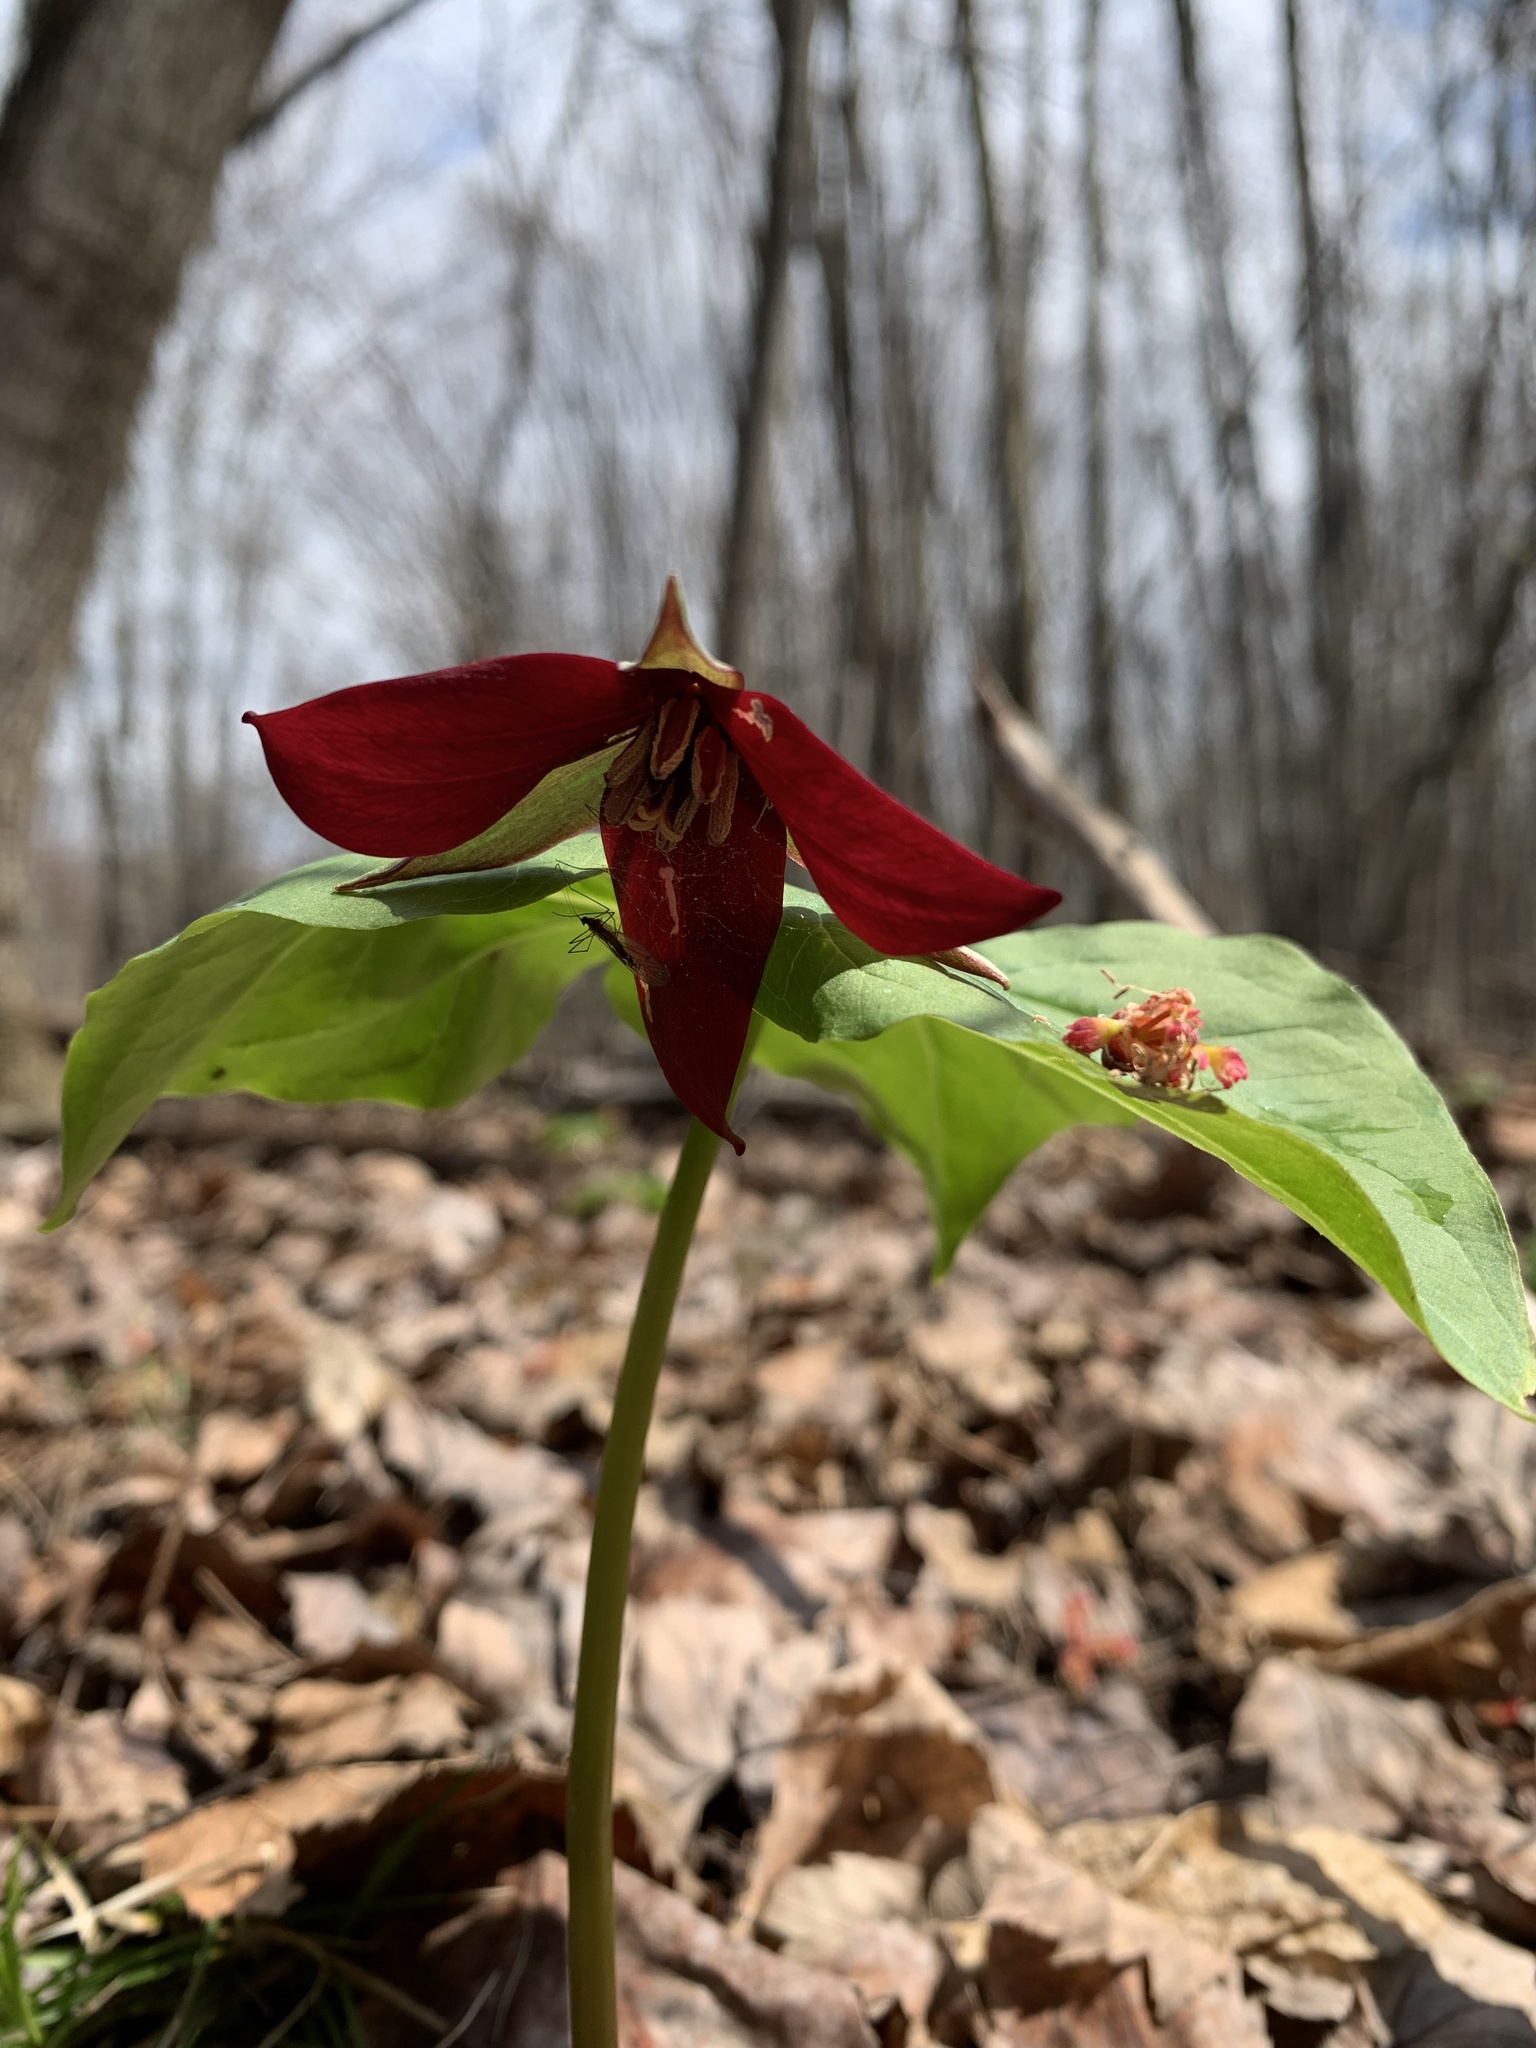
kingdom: Plantae
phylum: Tracheophyta
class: Liliopsida
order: Liliales
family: Melanthiaceae
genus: Trillium
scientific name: Trillium erectum
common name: Purple trillium
